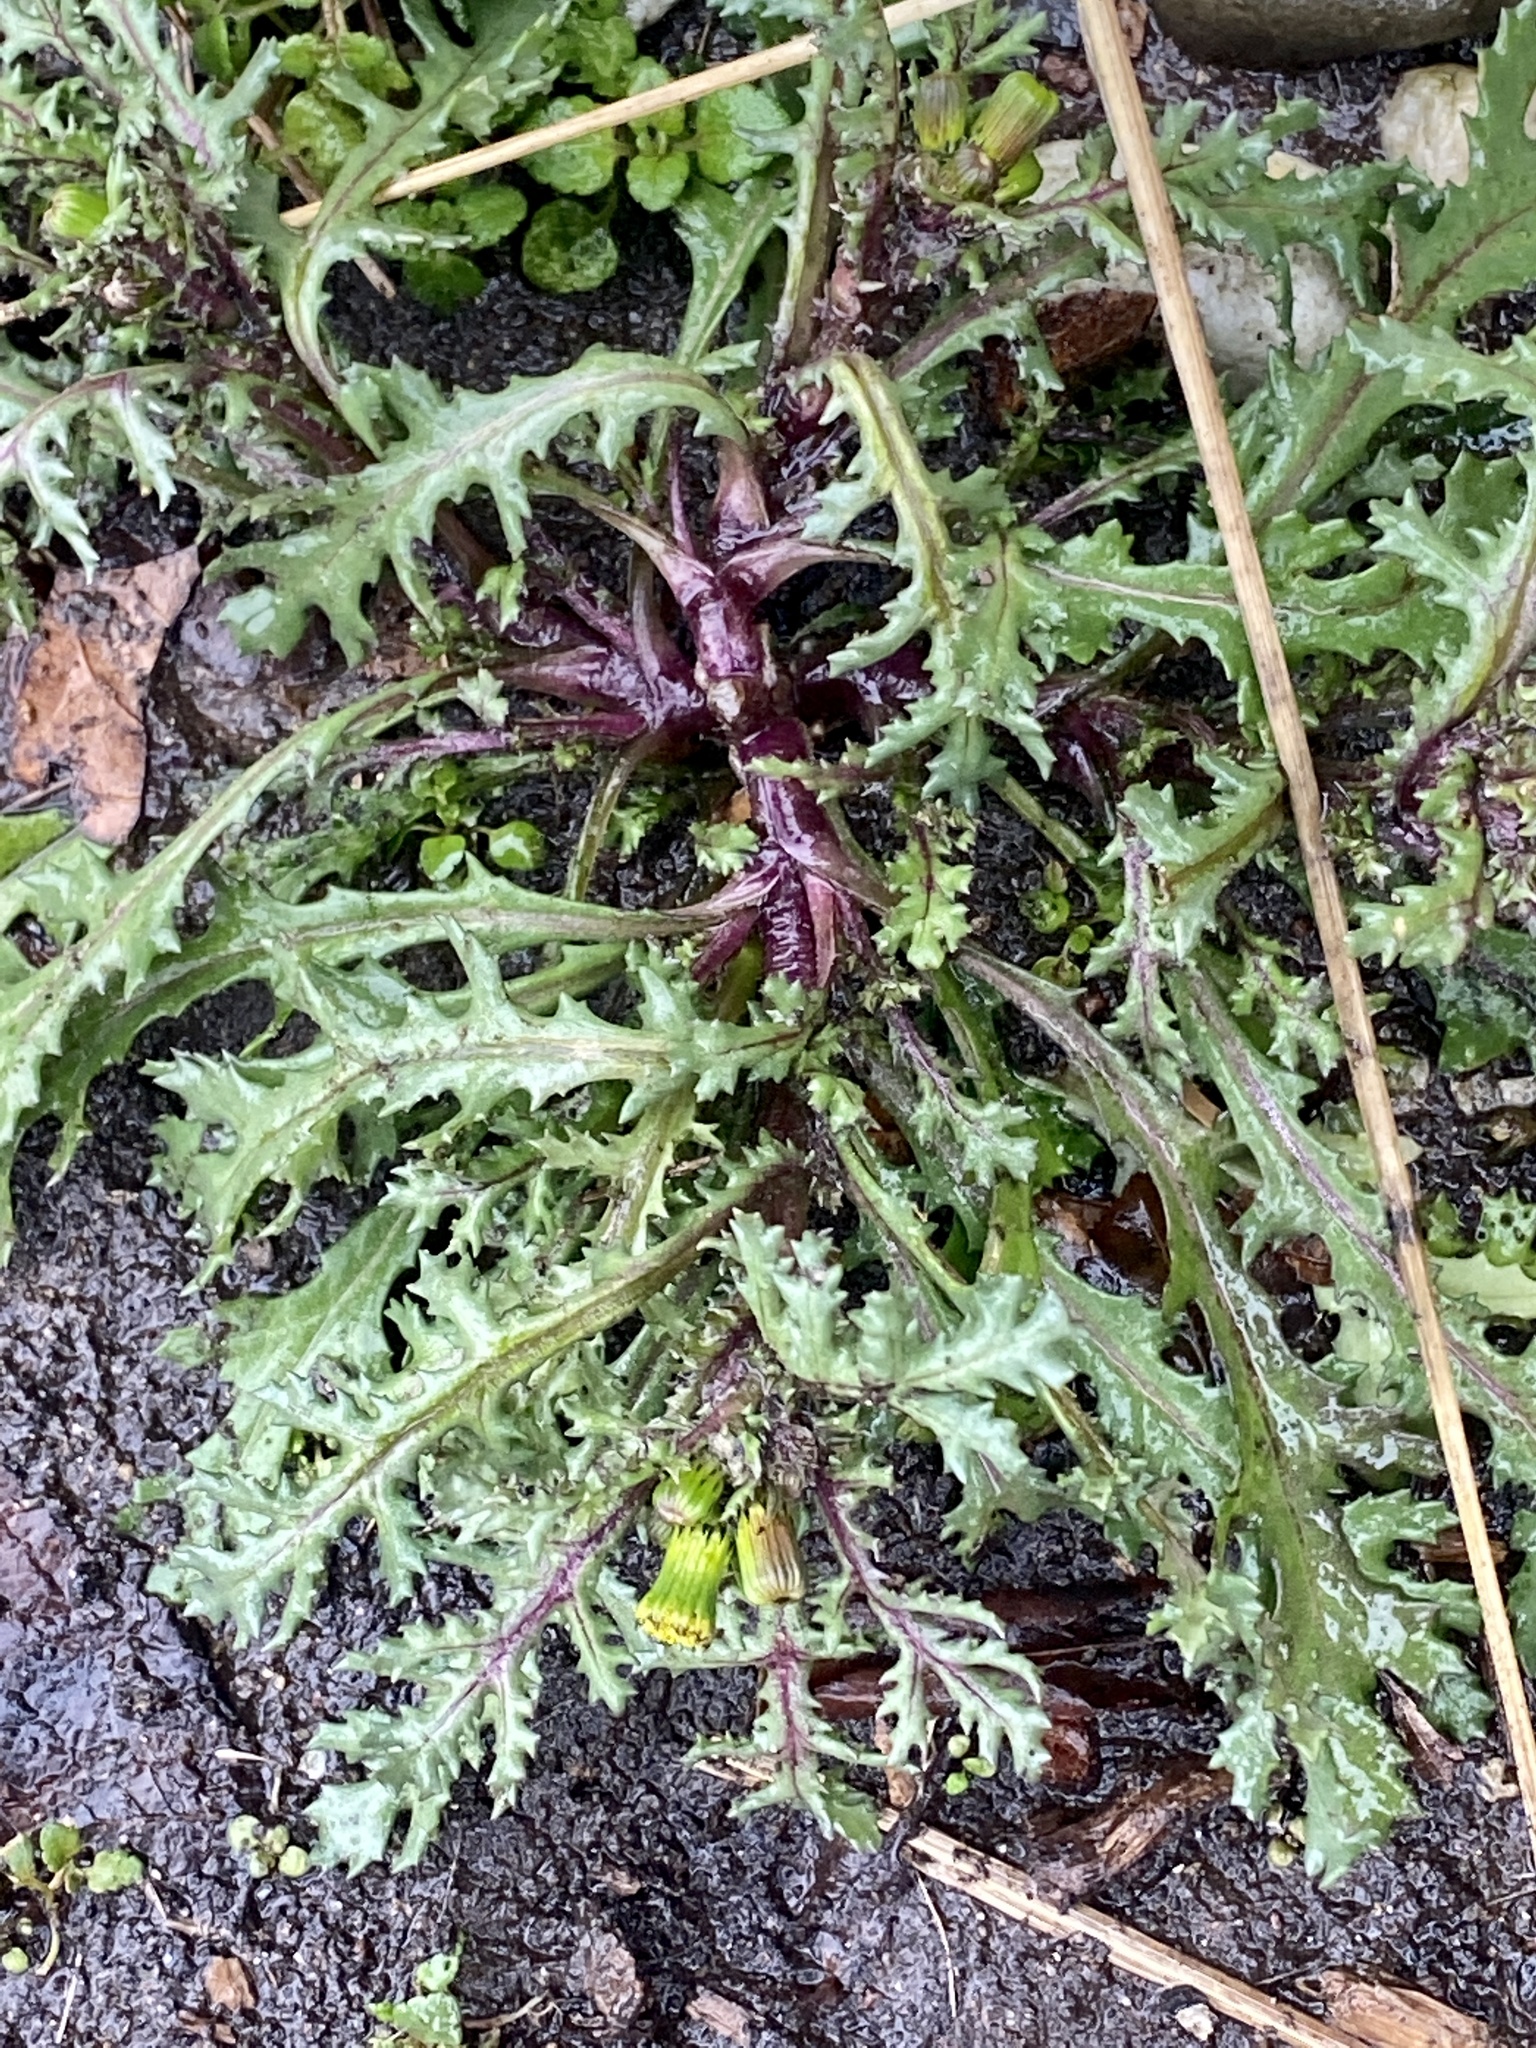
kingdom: Plantae
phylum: Tracheophyta
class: Magnoliopsida
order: Asterales
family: Asteraceae
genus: Senecio
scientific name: Senecio vulgaris
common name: Old-man-in-the-spring
